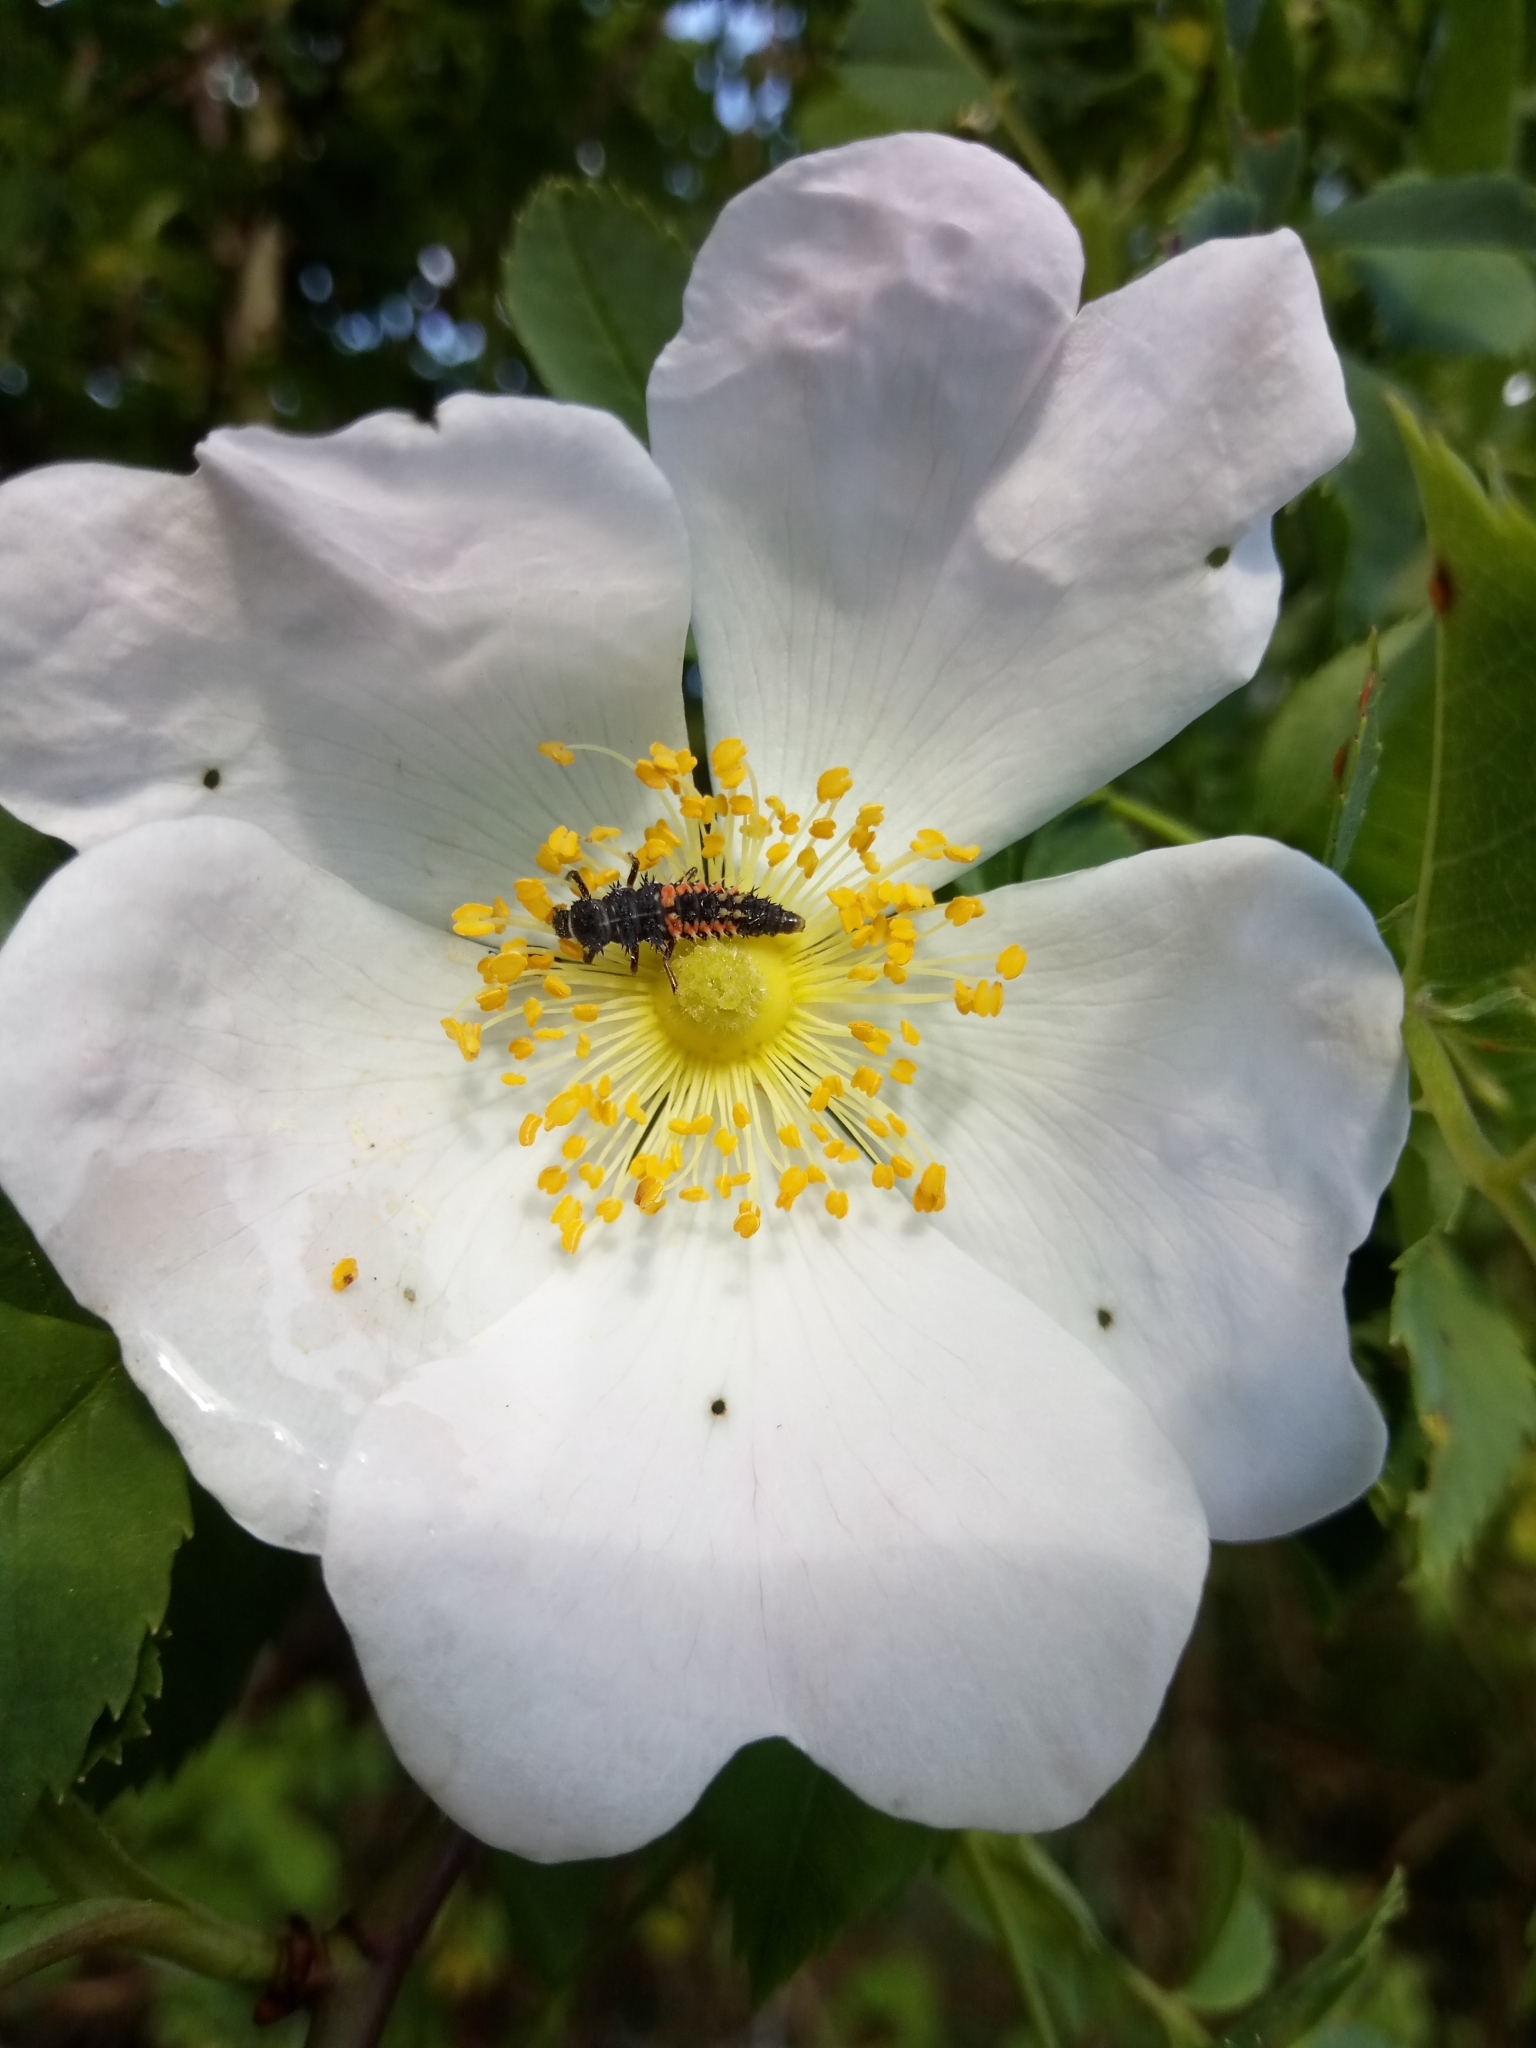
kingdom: Animalia
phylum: Arthropoda
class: Insecta
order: Coleoptera
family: Coccinellidae
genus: Harmonia
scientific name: Harmonia axyridis
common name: Harlequin ladybird
